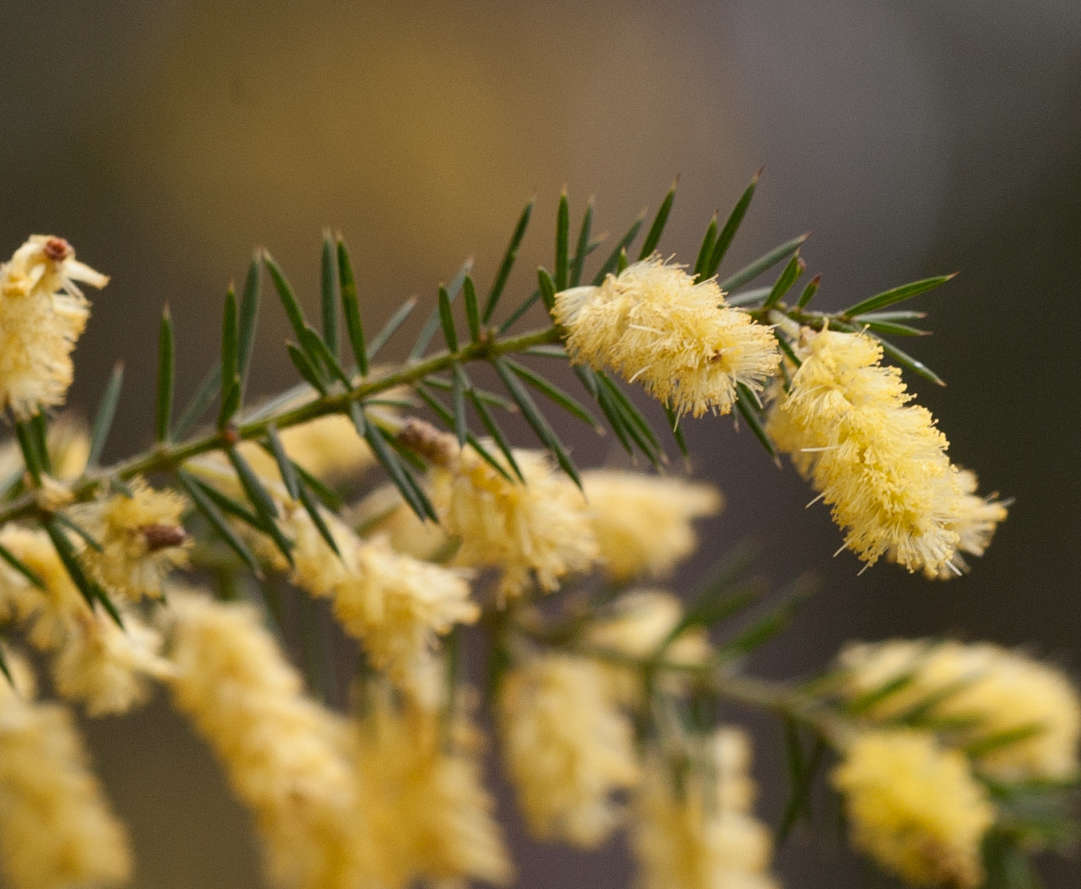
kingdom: Plantae
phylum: Tracheophyta
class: Magnoliopsida
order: Fabales
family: Fabaceae
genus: Acacia
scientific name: Acacia verticillata
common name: Prickly moses
